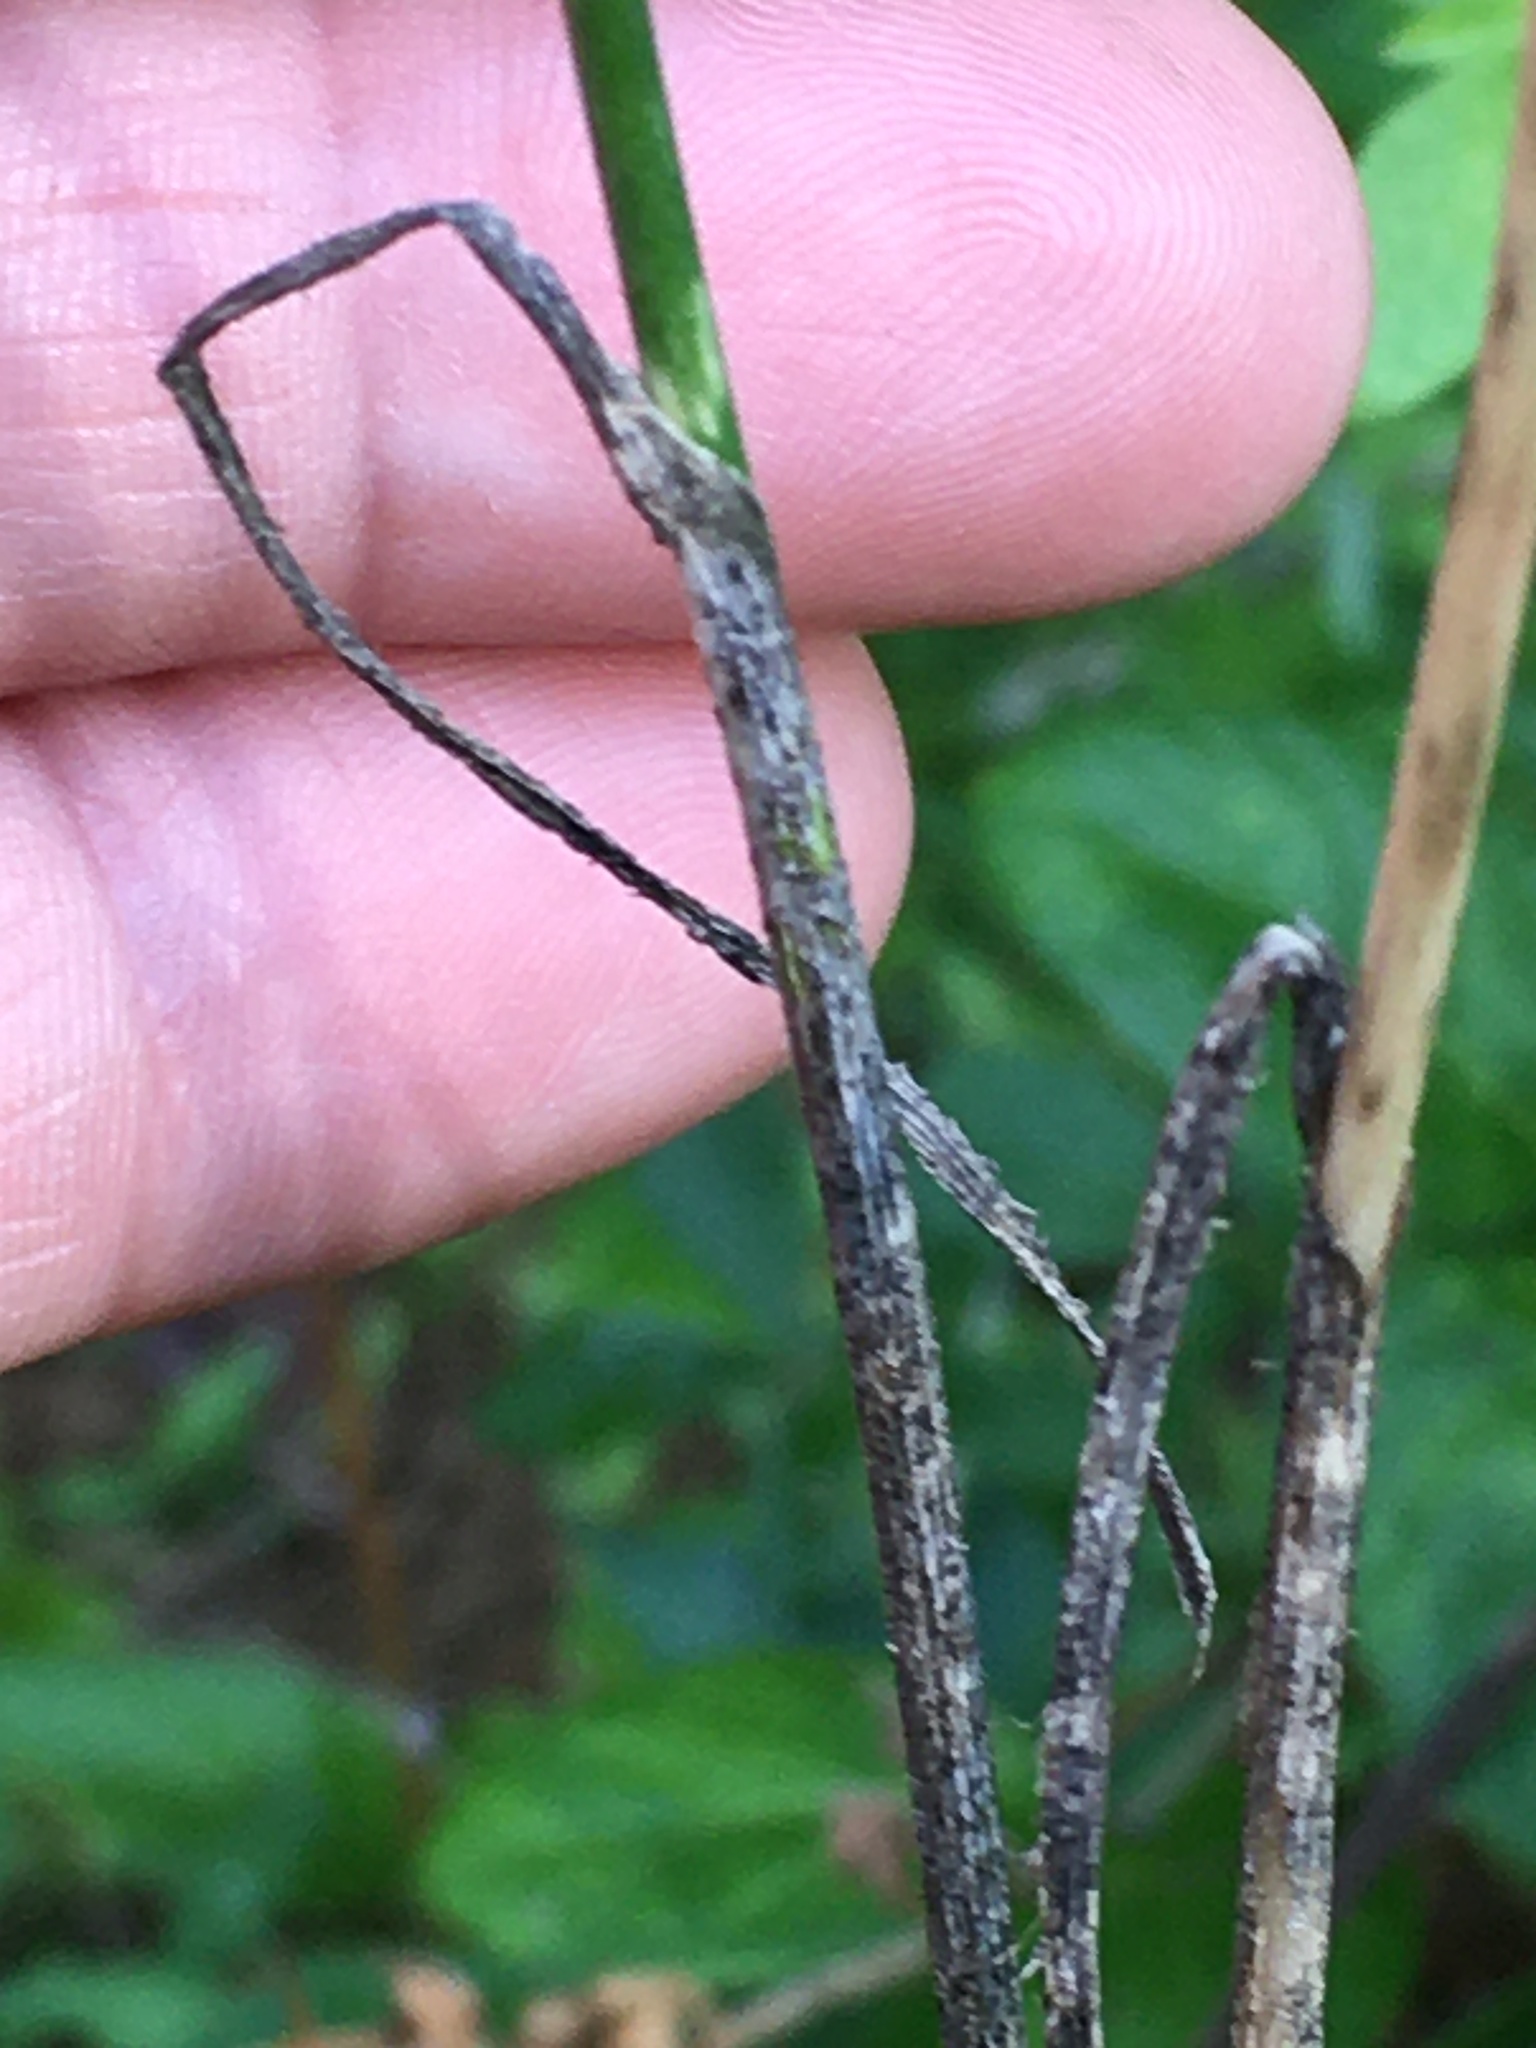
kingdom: Plantae
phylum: Tracheophyta
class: Liliopsida
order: Asparagales
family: Amaryllidaceae
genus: Allium
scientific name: Allium vineale
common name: Crow garlic
